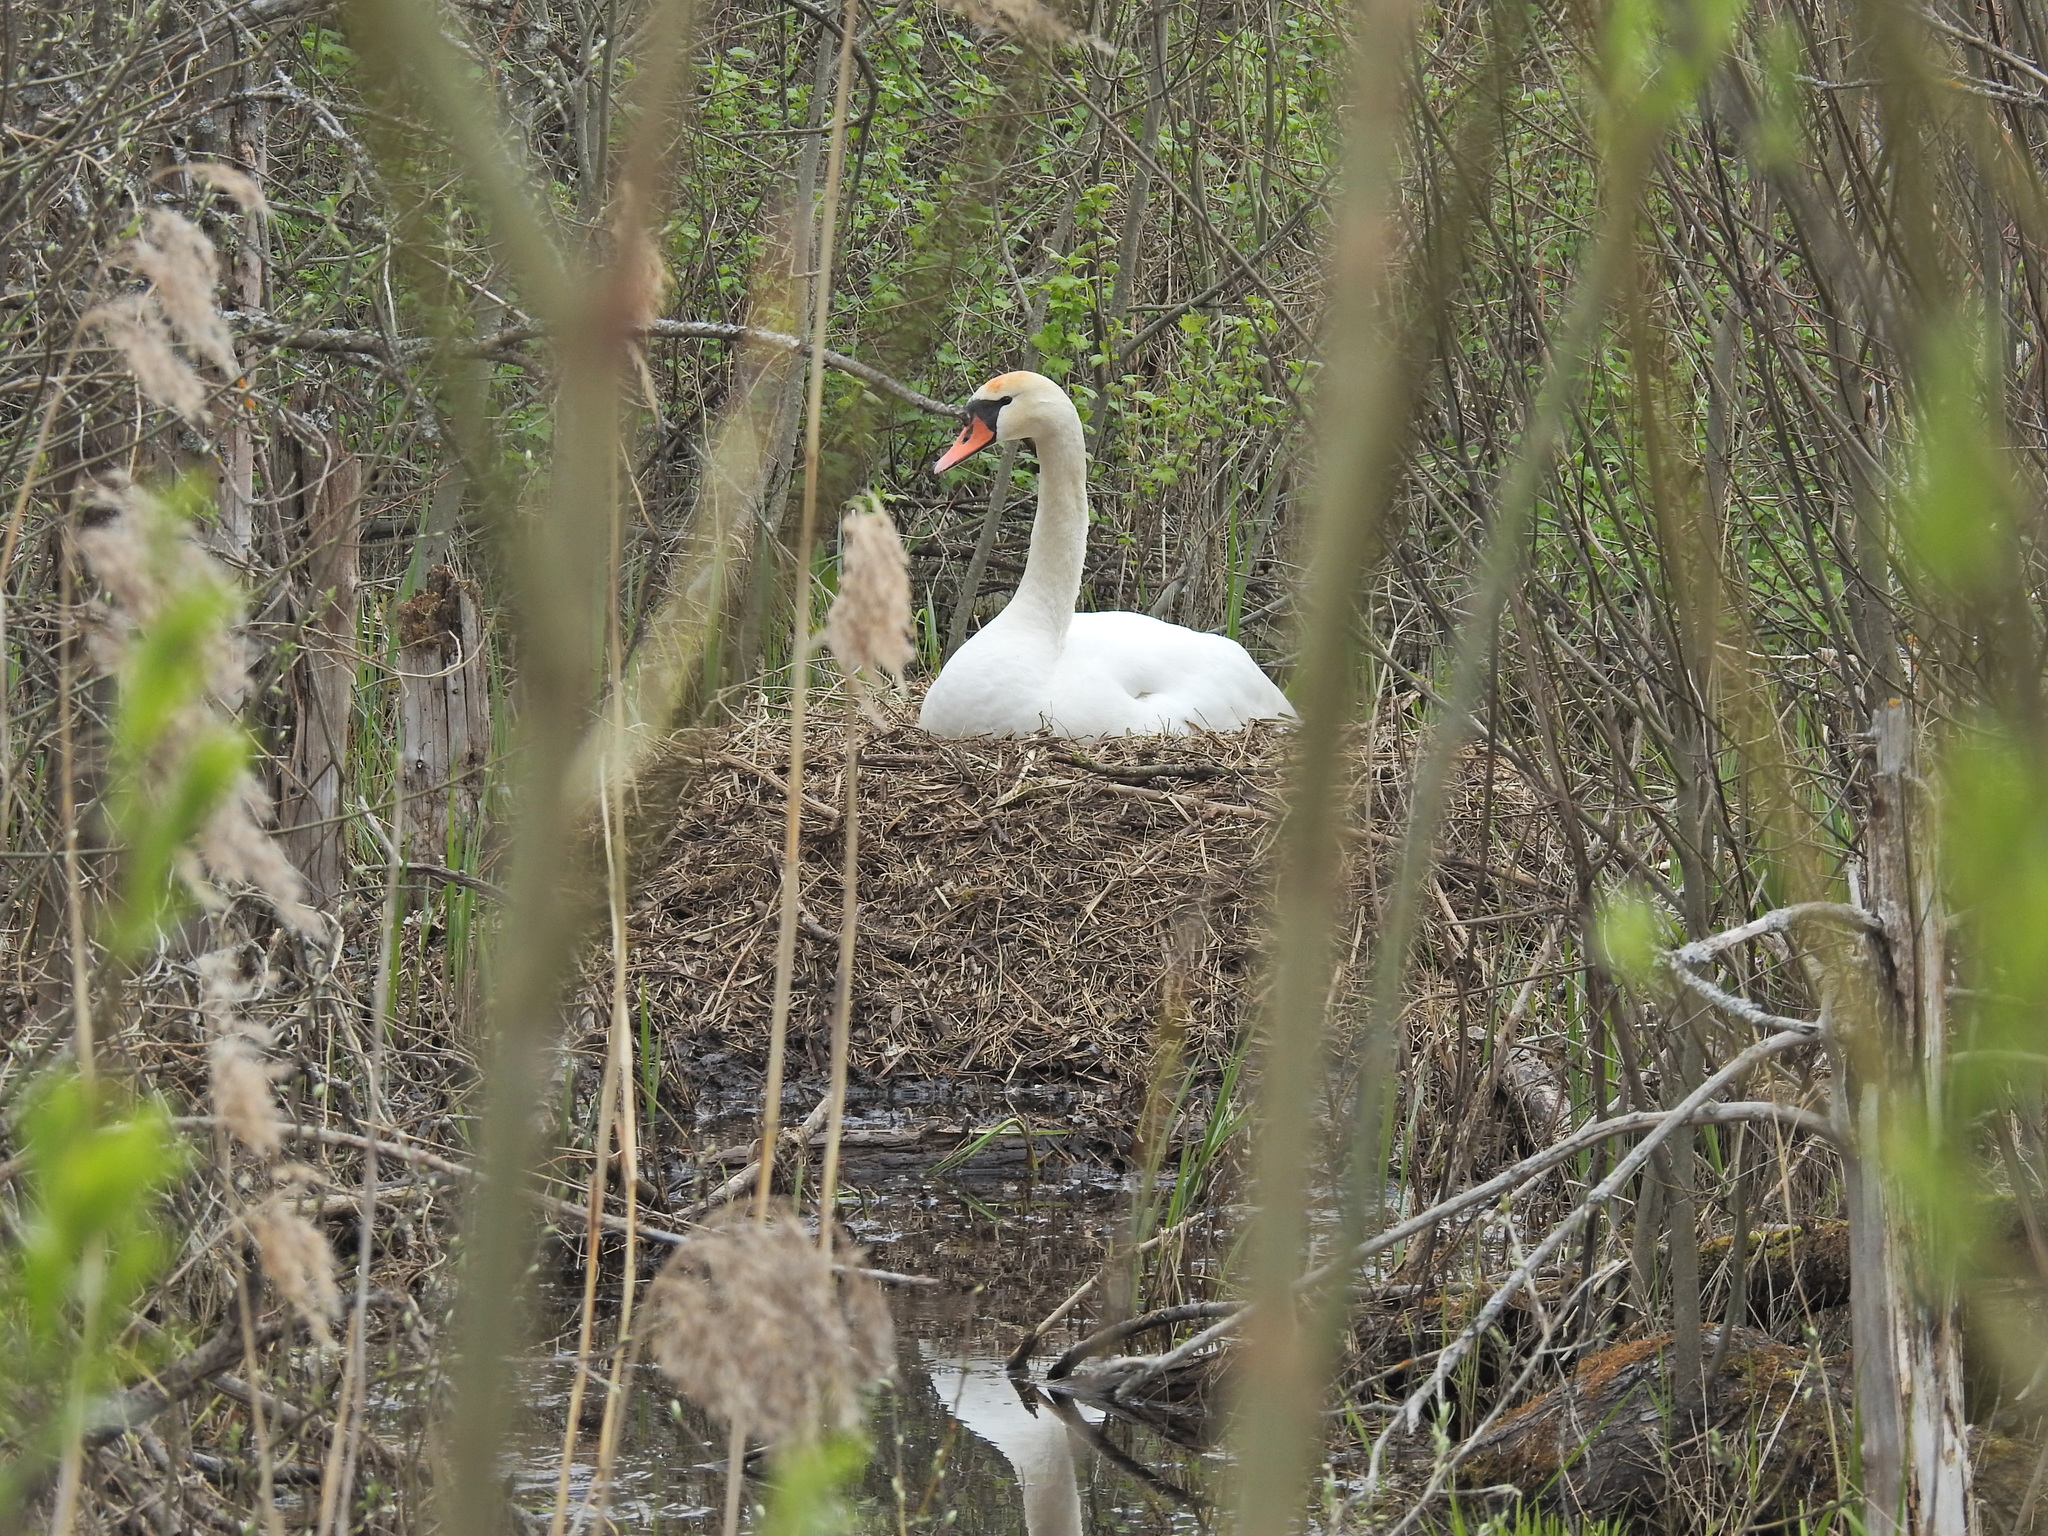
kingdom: Animalia
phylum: Chordata
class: Aves
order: Anseriformes
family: Anatidae
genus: Cygnus
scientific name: Cygnus olor
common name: Mute swan
